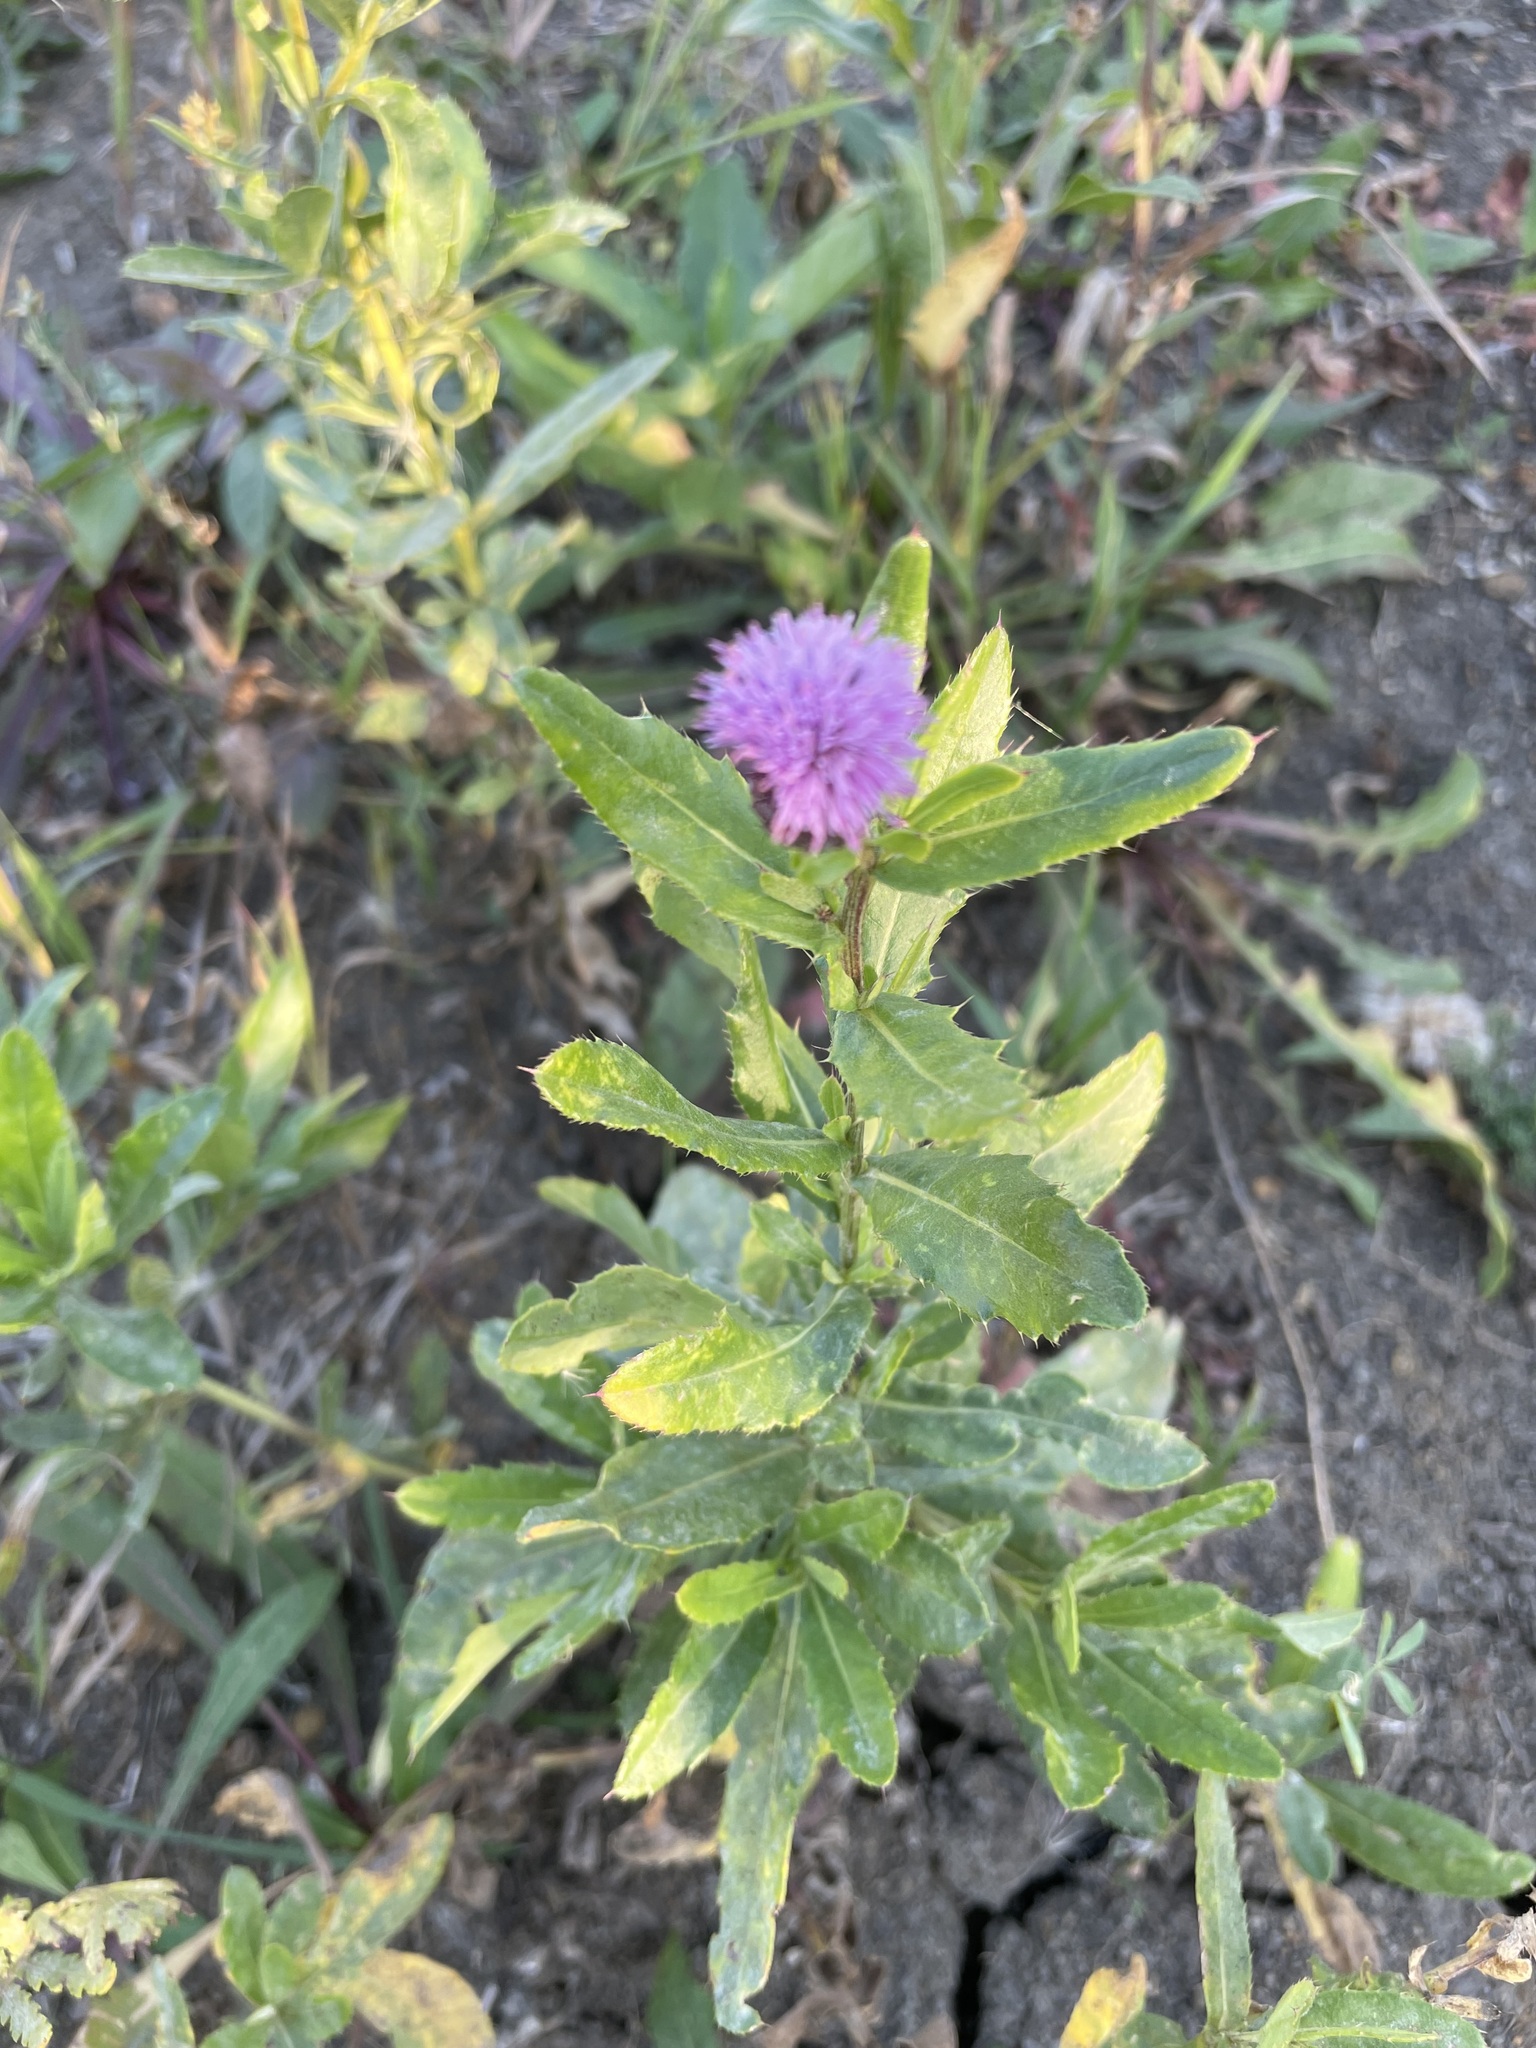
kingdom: Plantae
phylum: Tracheophyta
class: Magnoliopsida
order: Asterales
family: Asteraceae
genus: Cirsium
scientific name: Cirsium arvense
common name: Creeping thistle
